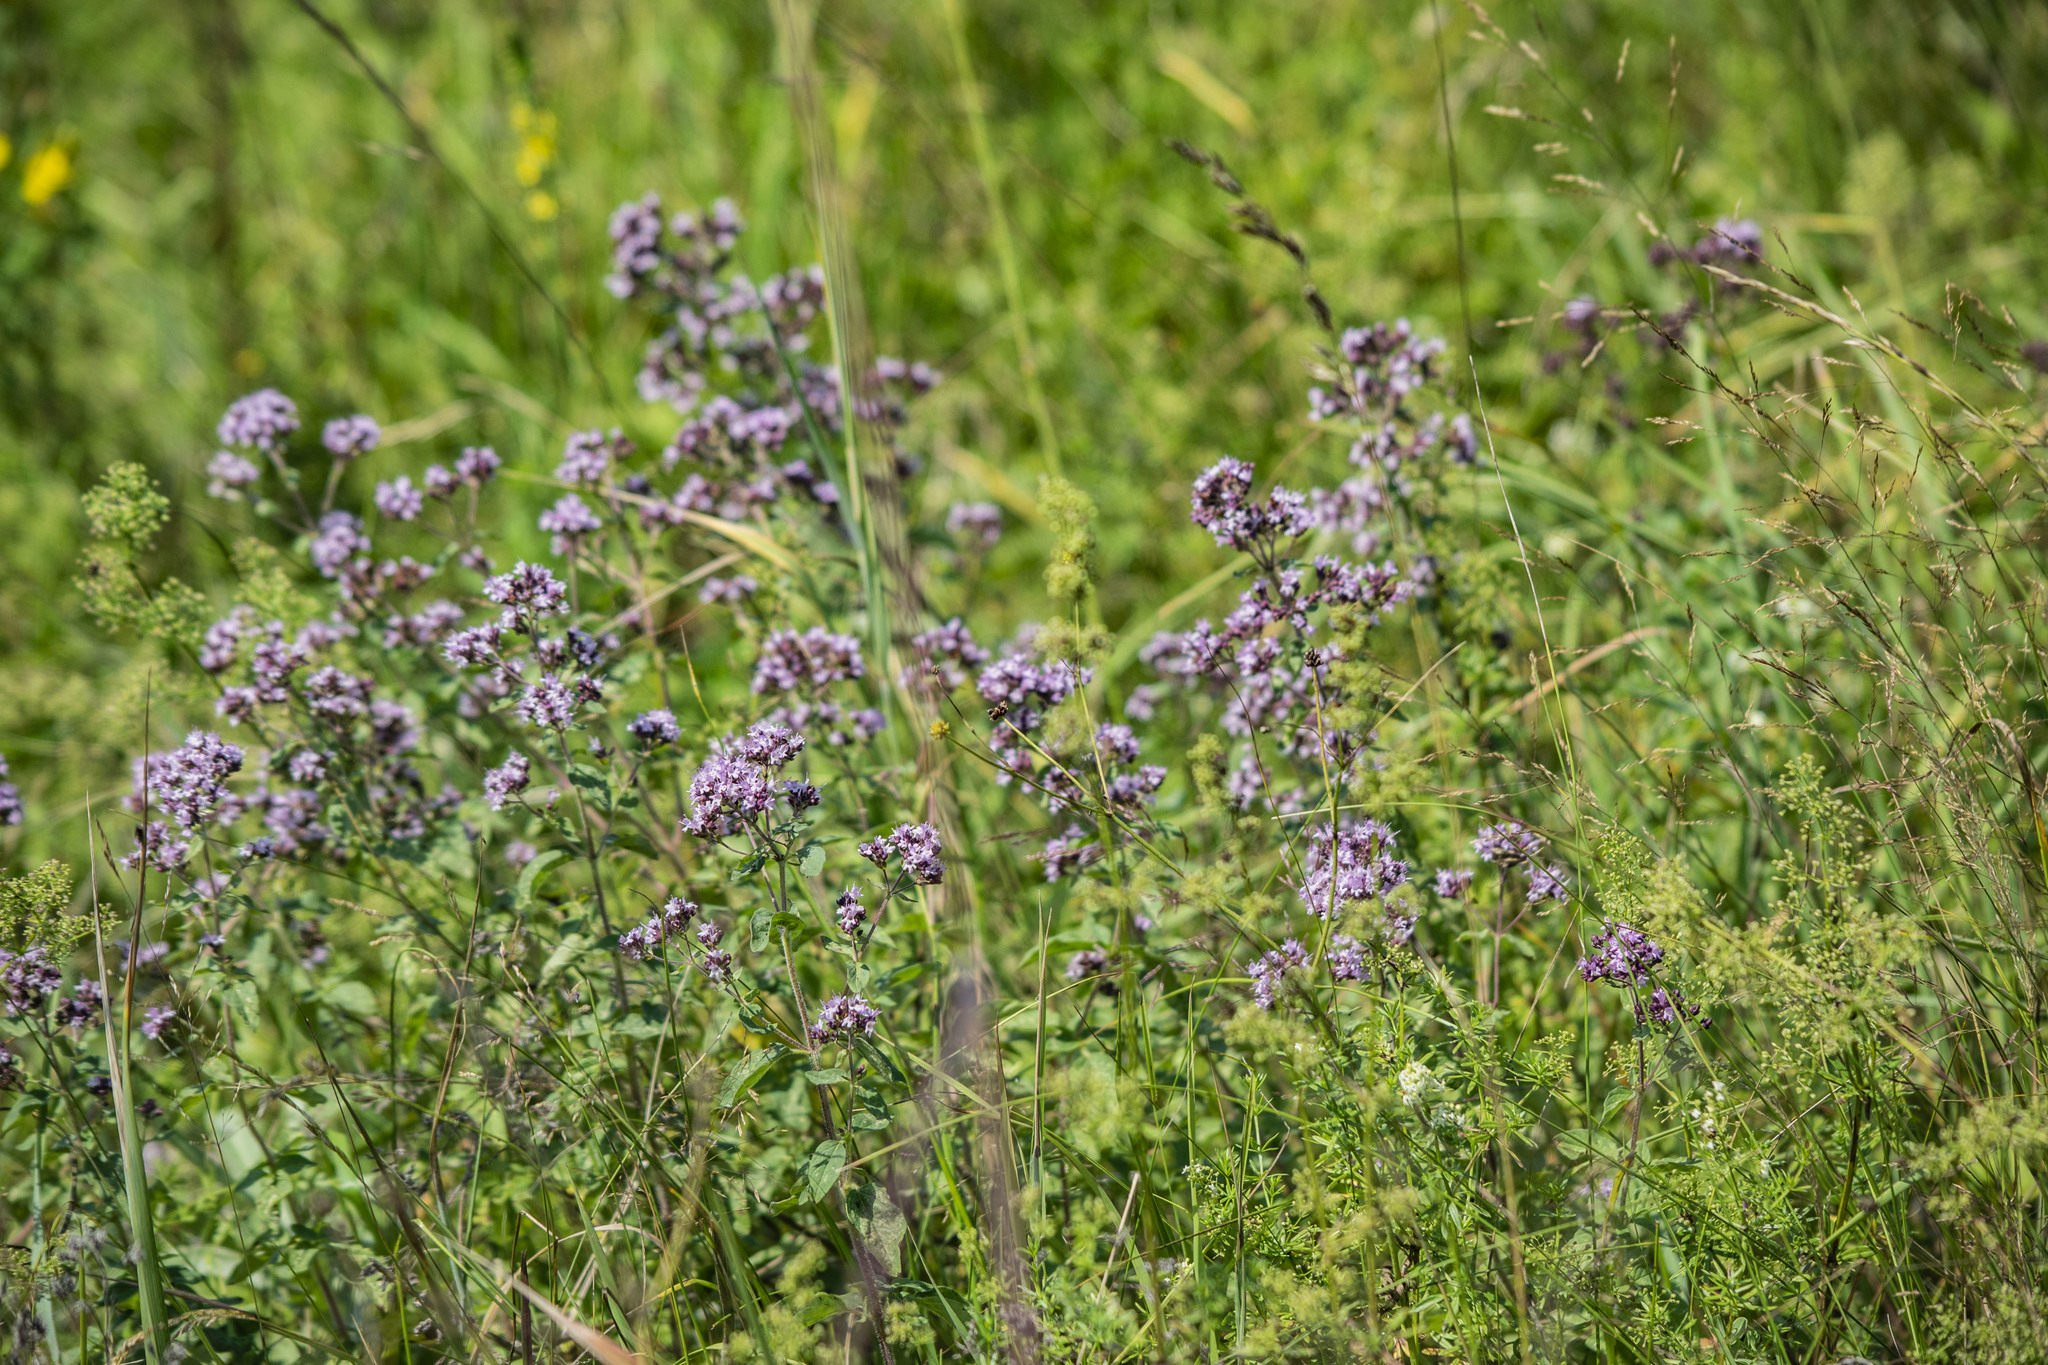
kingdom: Plantae
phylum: Tracheophyta
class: Magnoliopsida
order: Lamiales
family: Lamiaceae
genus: Origanum
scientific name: Origanum vulgare
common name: Wild marjoram
